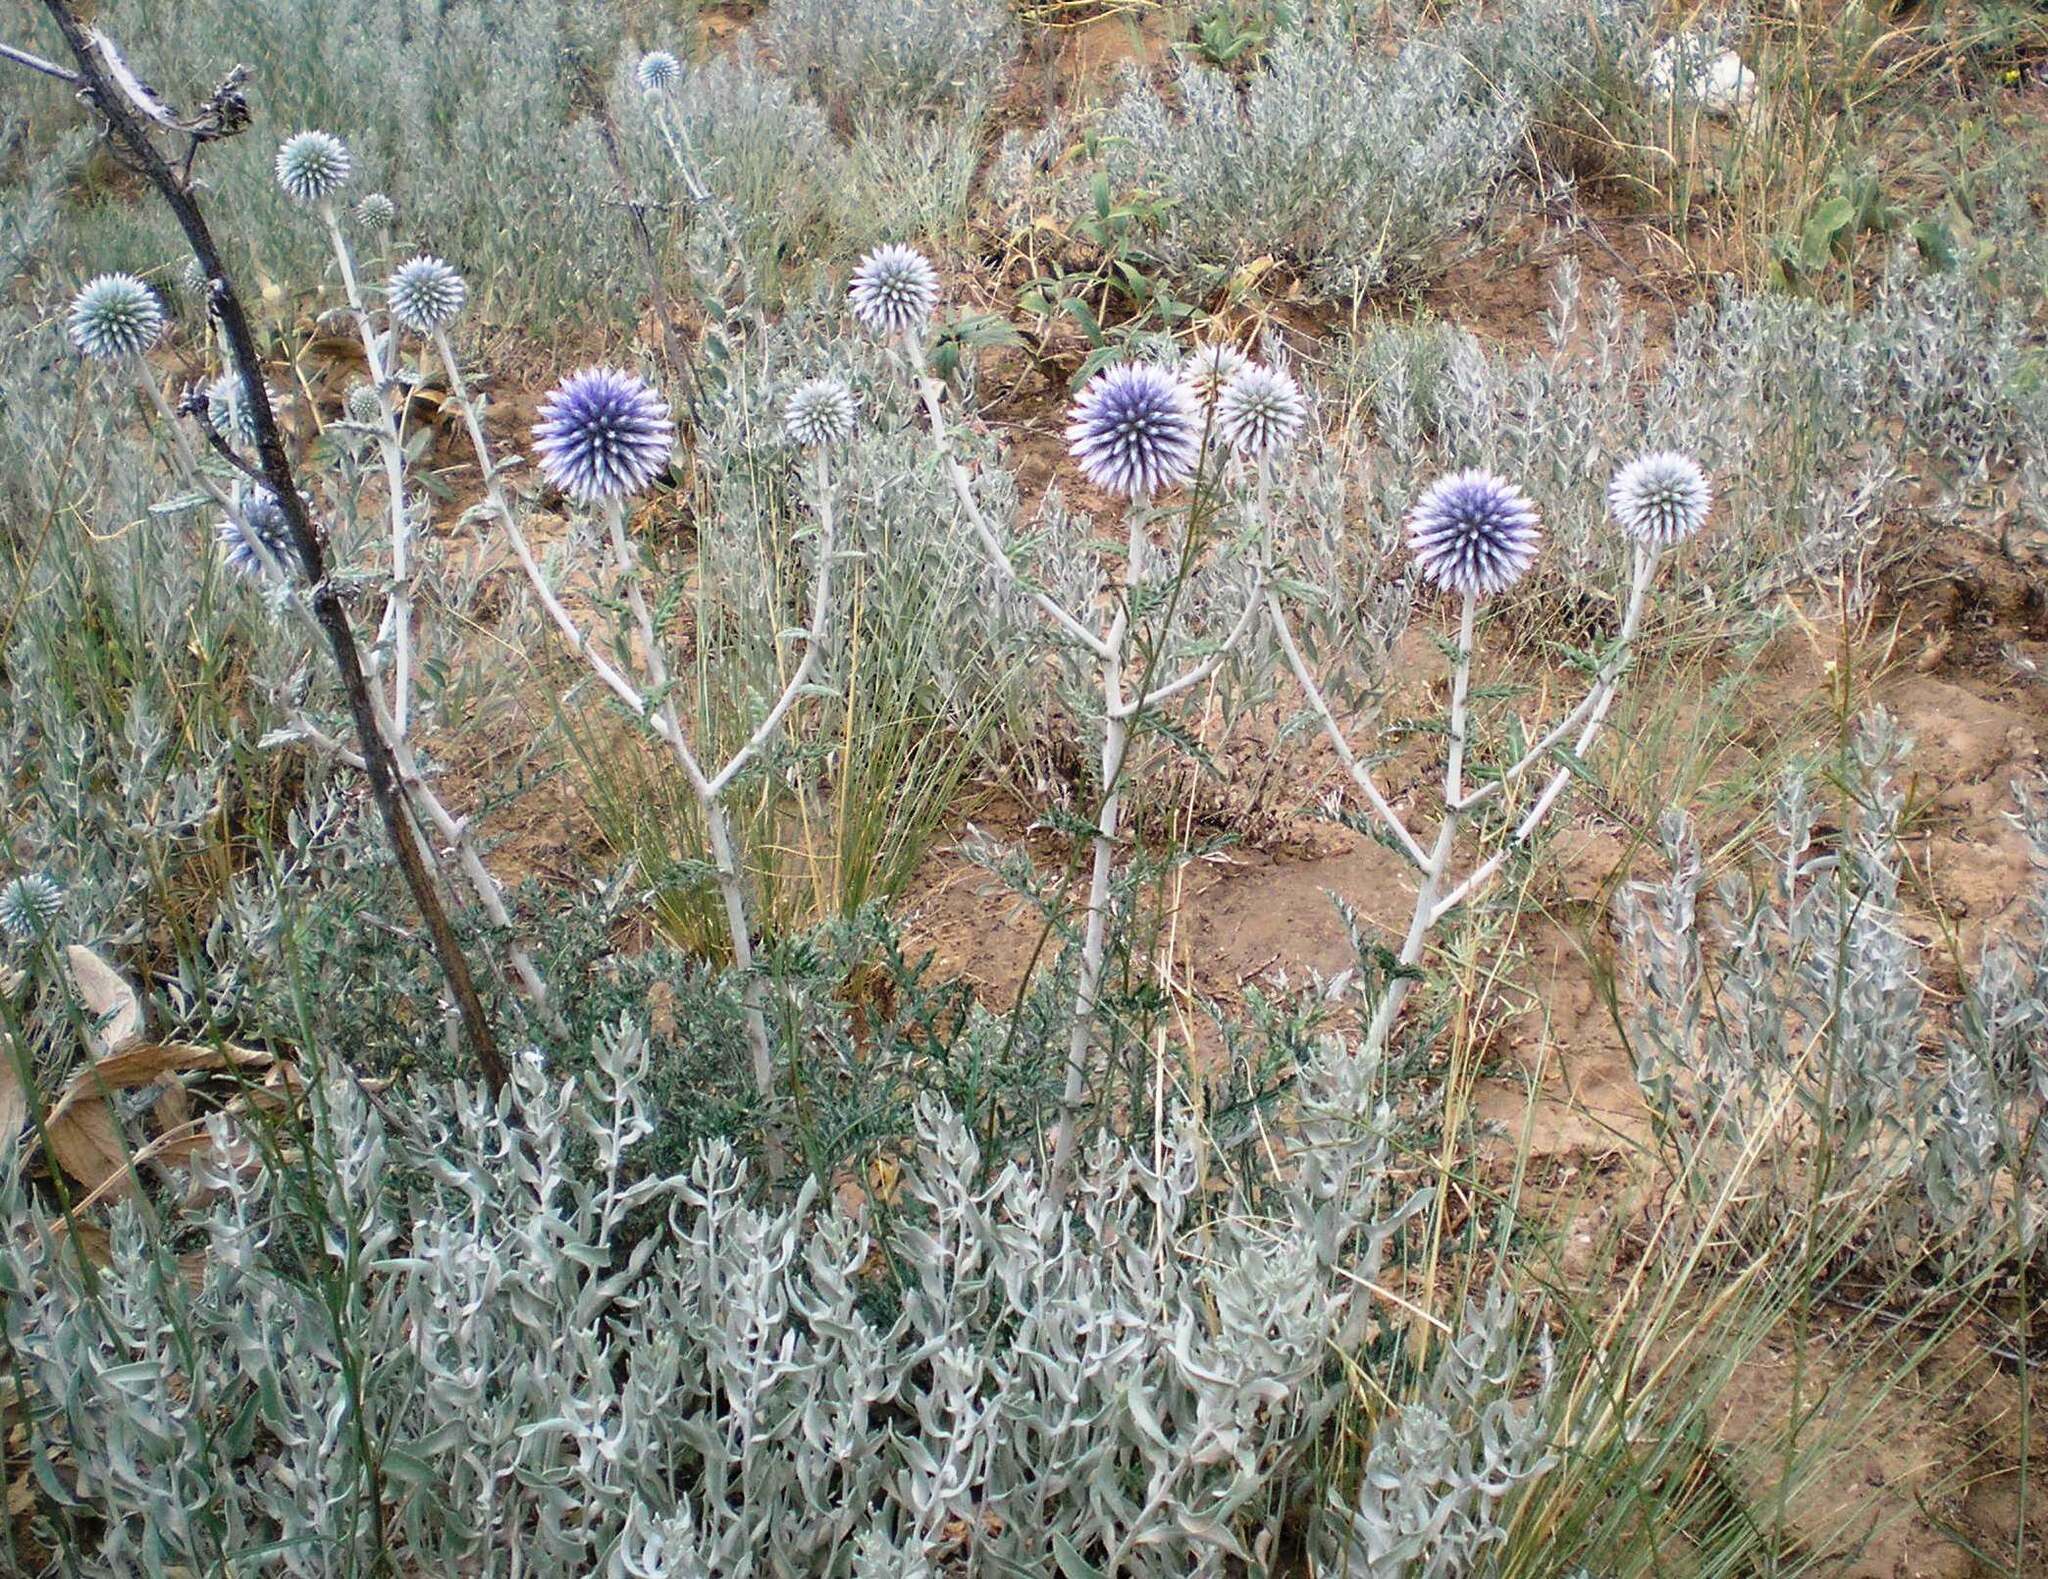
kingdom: Plantae
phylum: Tracheophyta
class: Magnoliopsida
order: Asterales
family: Asteraceae
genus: Echinops
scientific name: Echinops ritro
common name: Globe thistle
